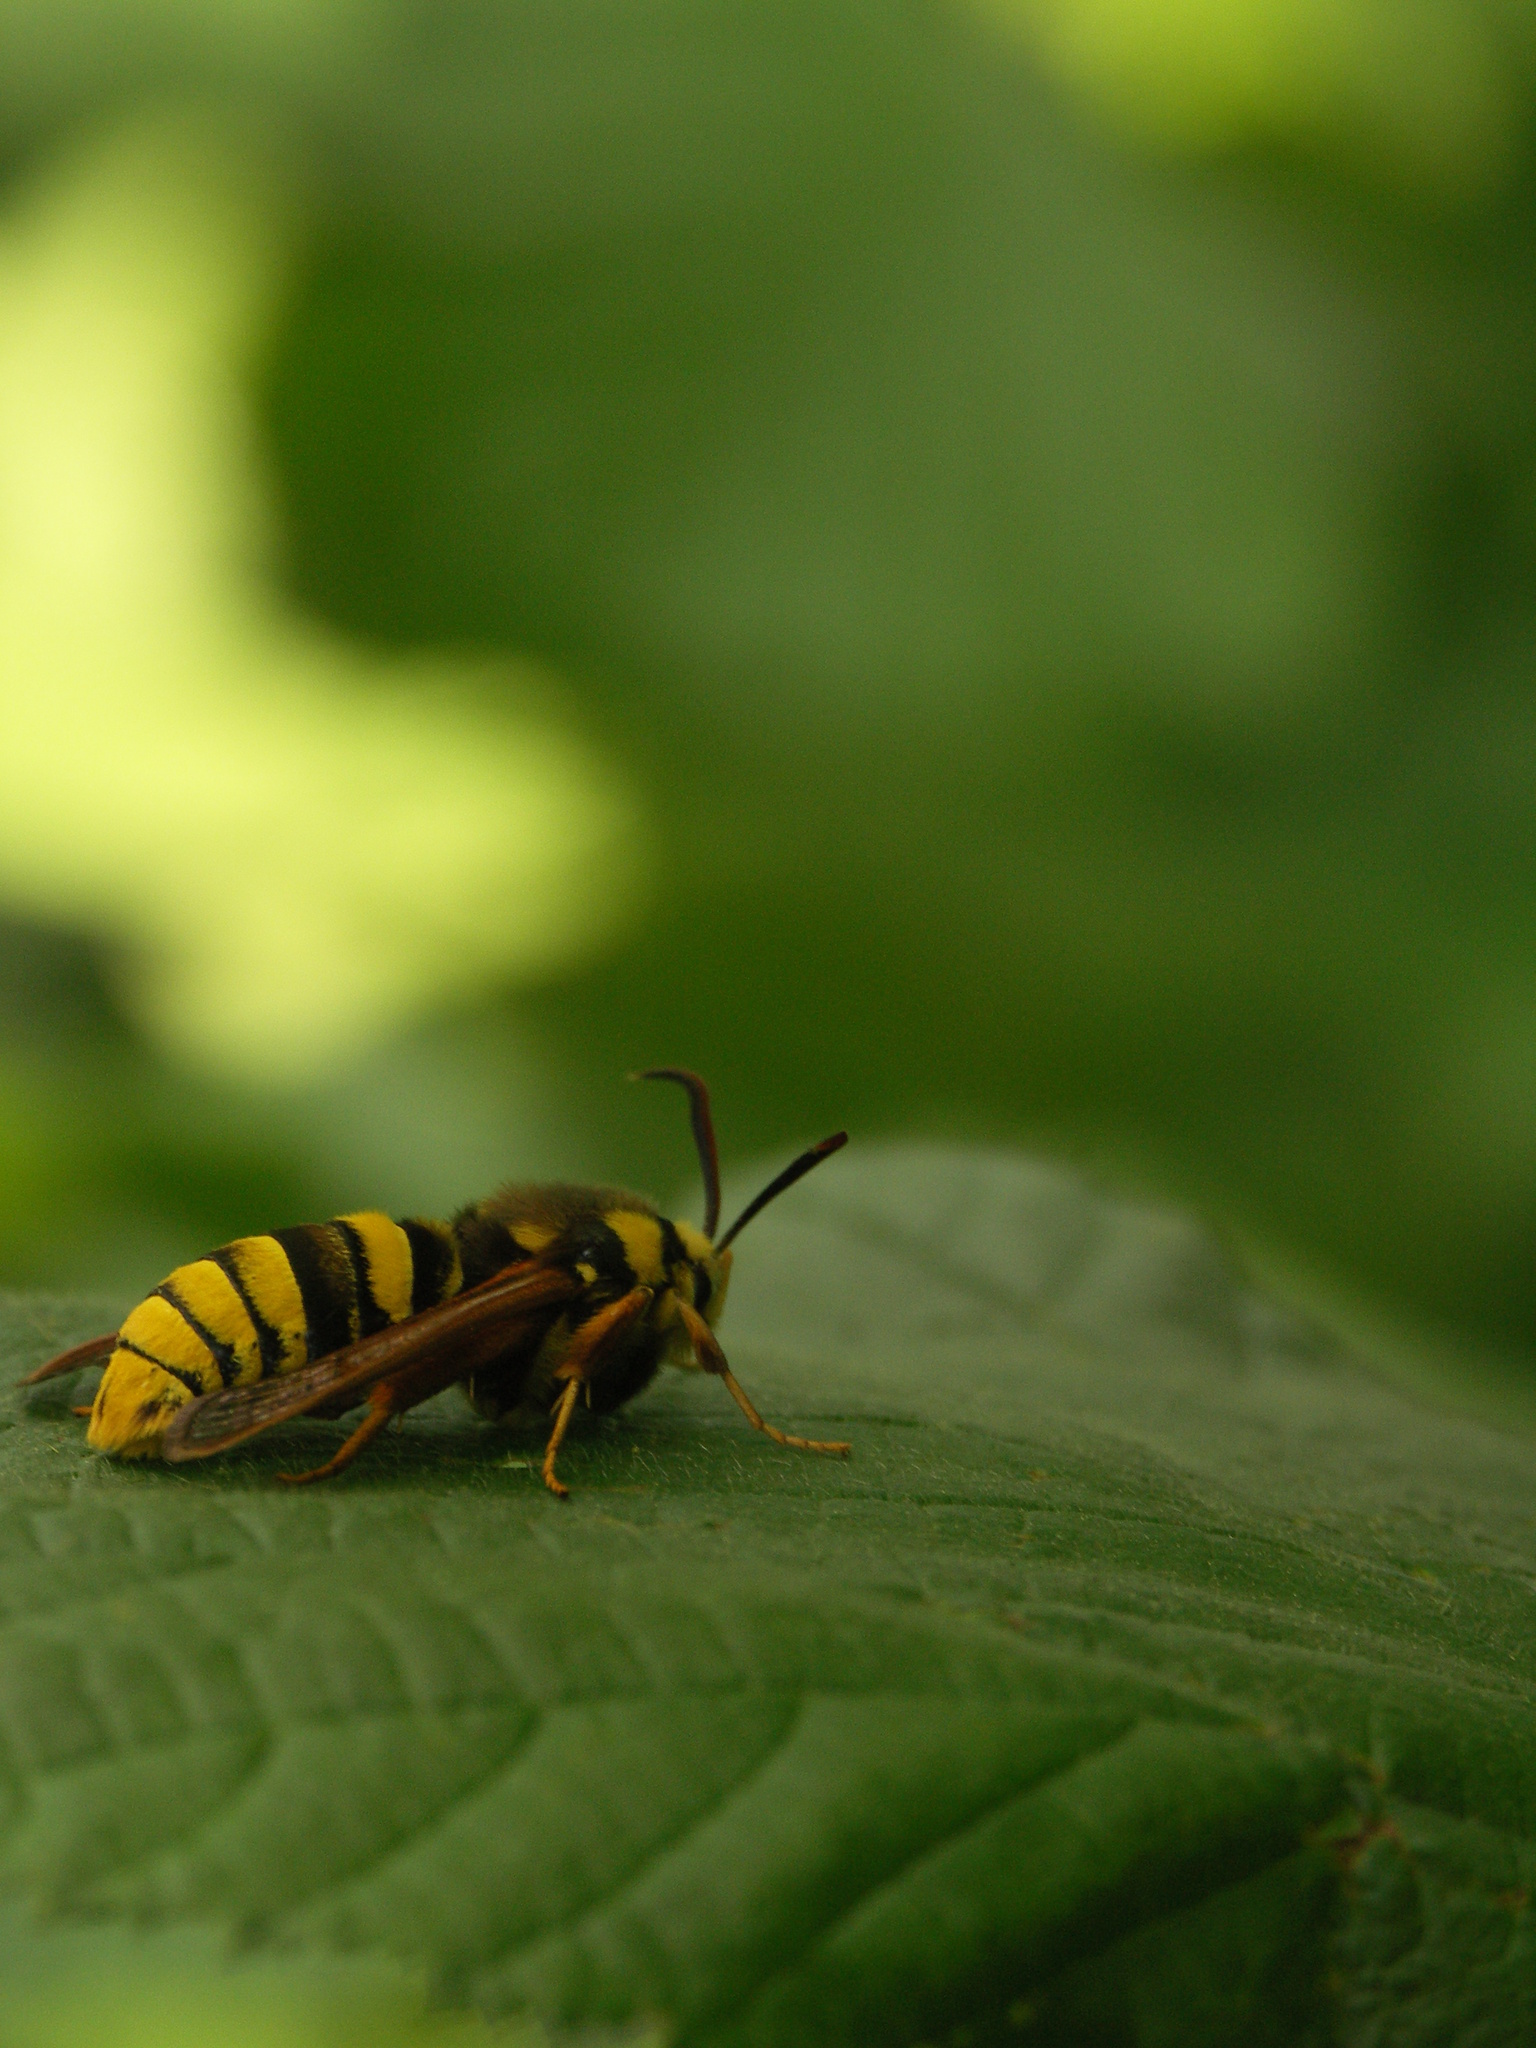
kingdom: Animalia
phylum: Arthropoda
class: Insecta
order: Lepidoptera
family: Sesiidae
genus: Sesia
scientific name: Sesia apiformis
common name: Hornet moth
